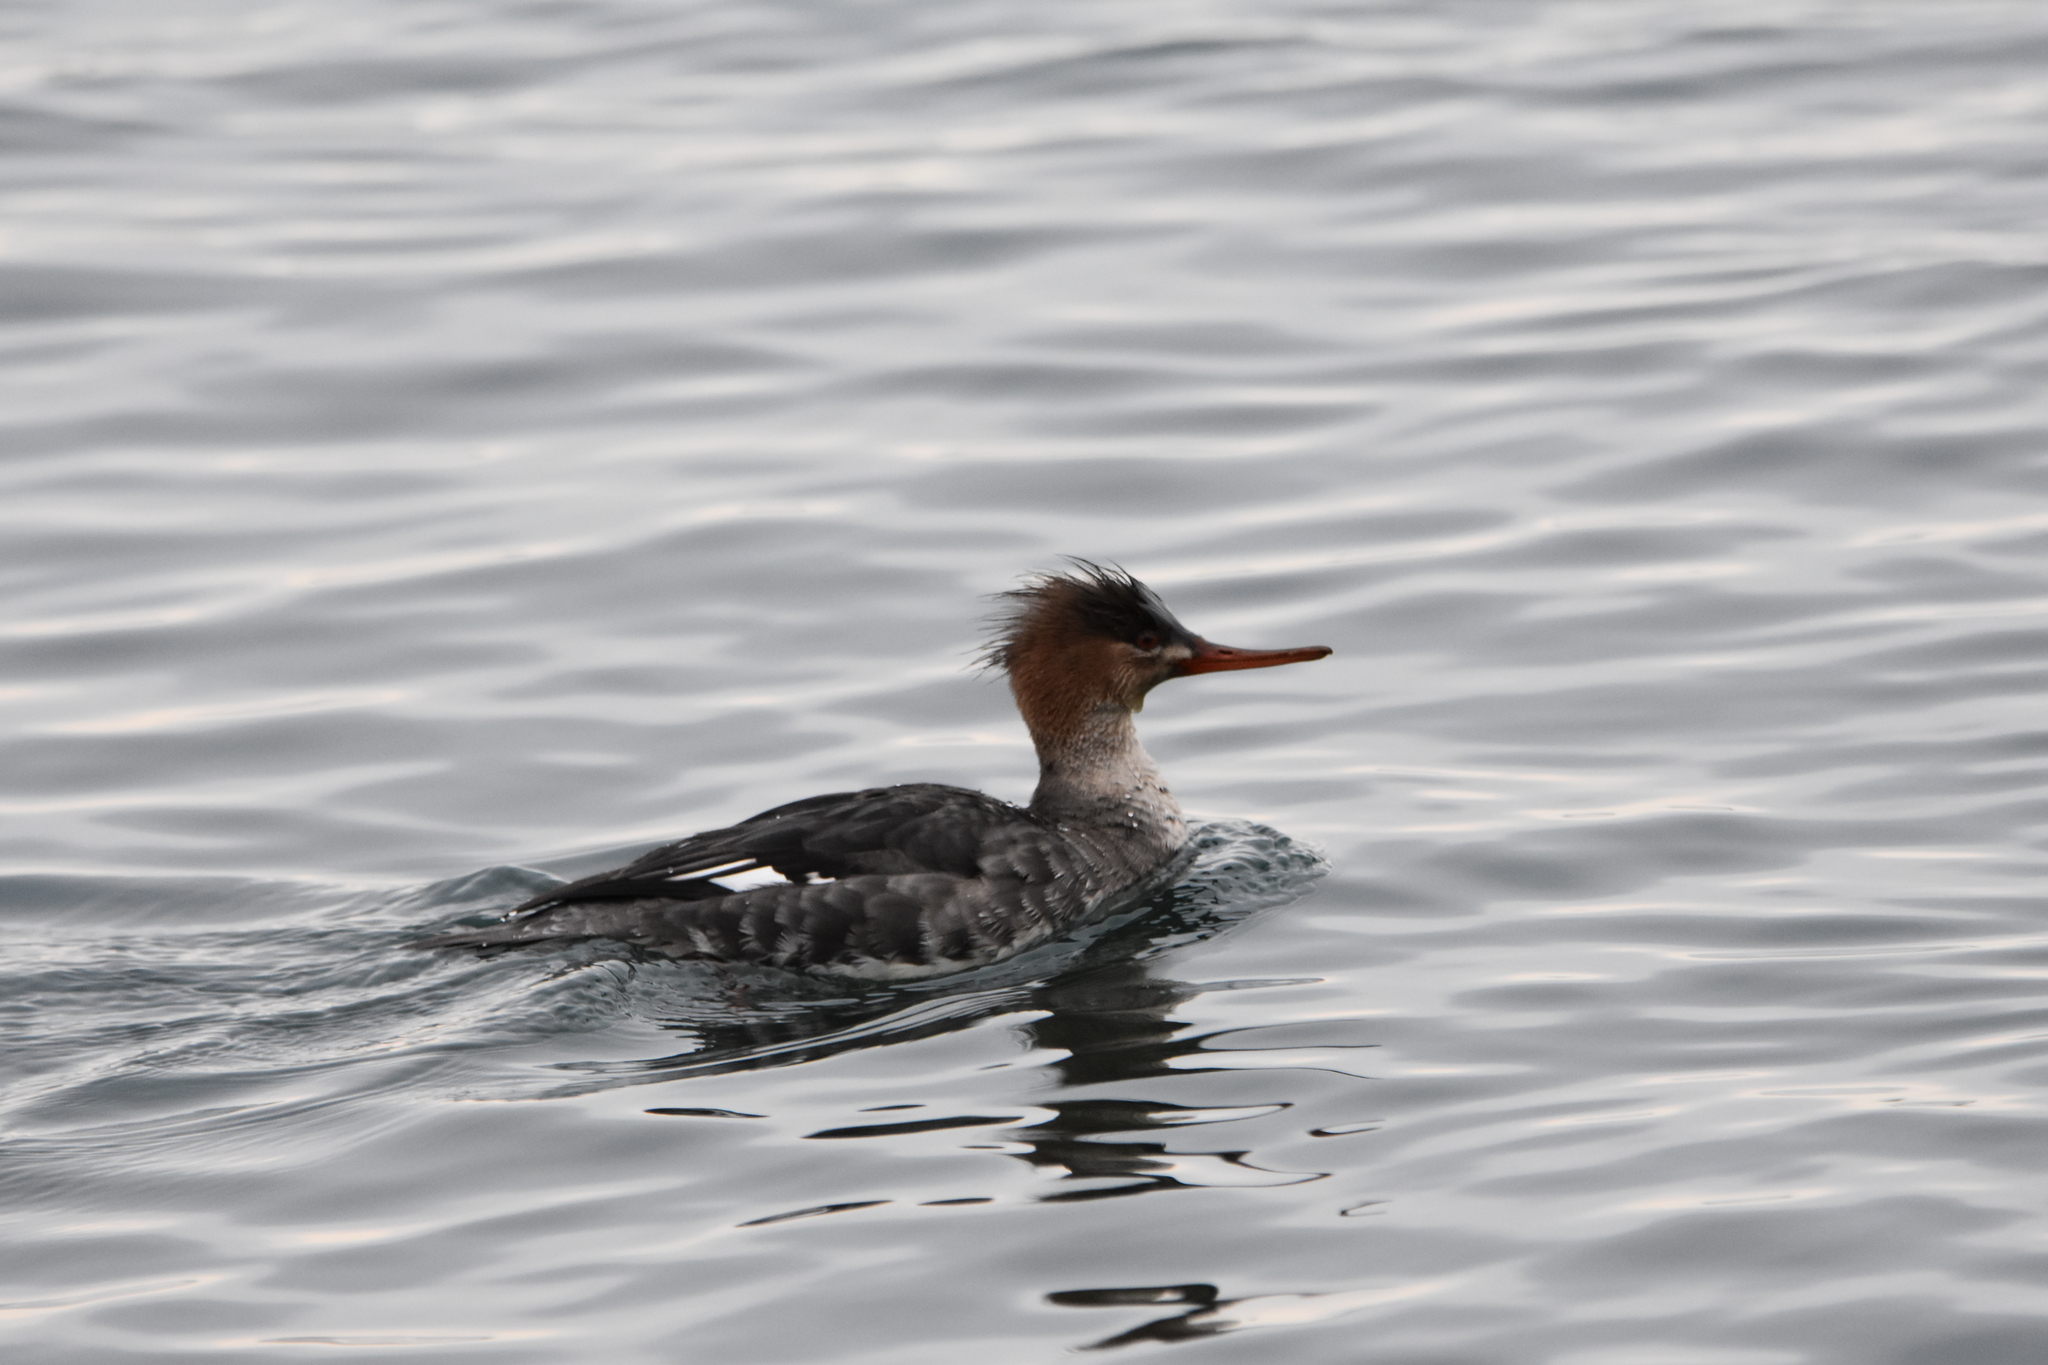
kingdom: Animalia
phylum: Chordata
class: Aves
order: Anseriformes
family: Anatidae
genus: Mergus
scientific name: Mergus serrator
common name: Red-breasted merganser
